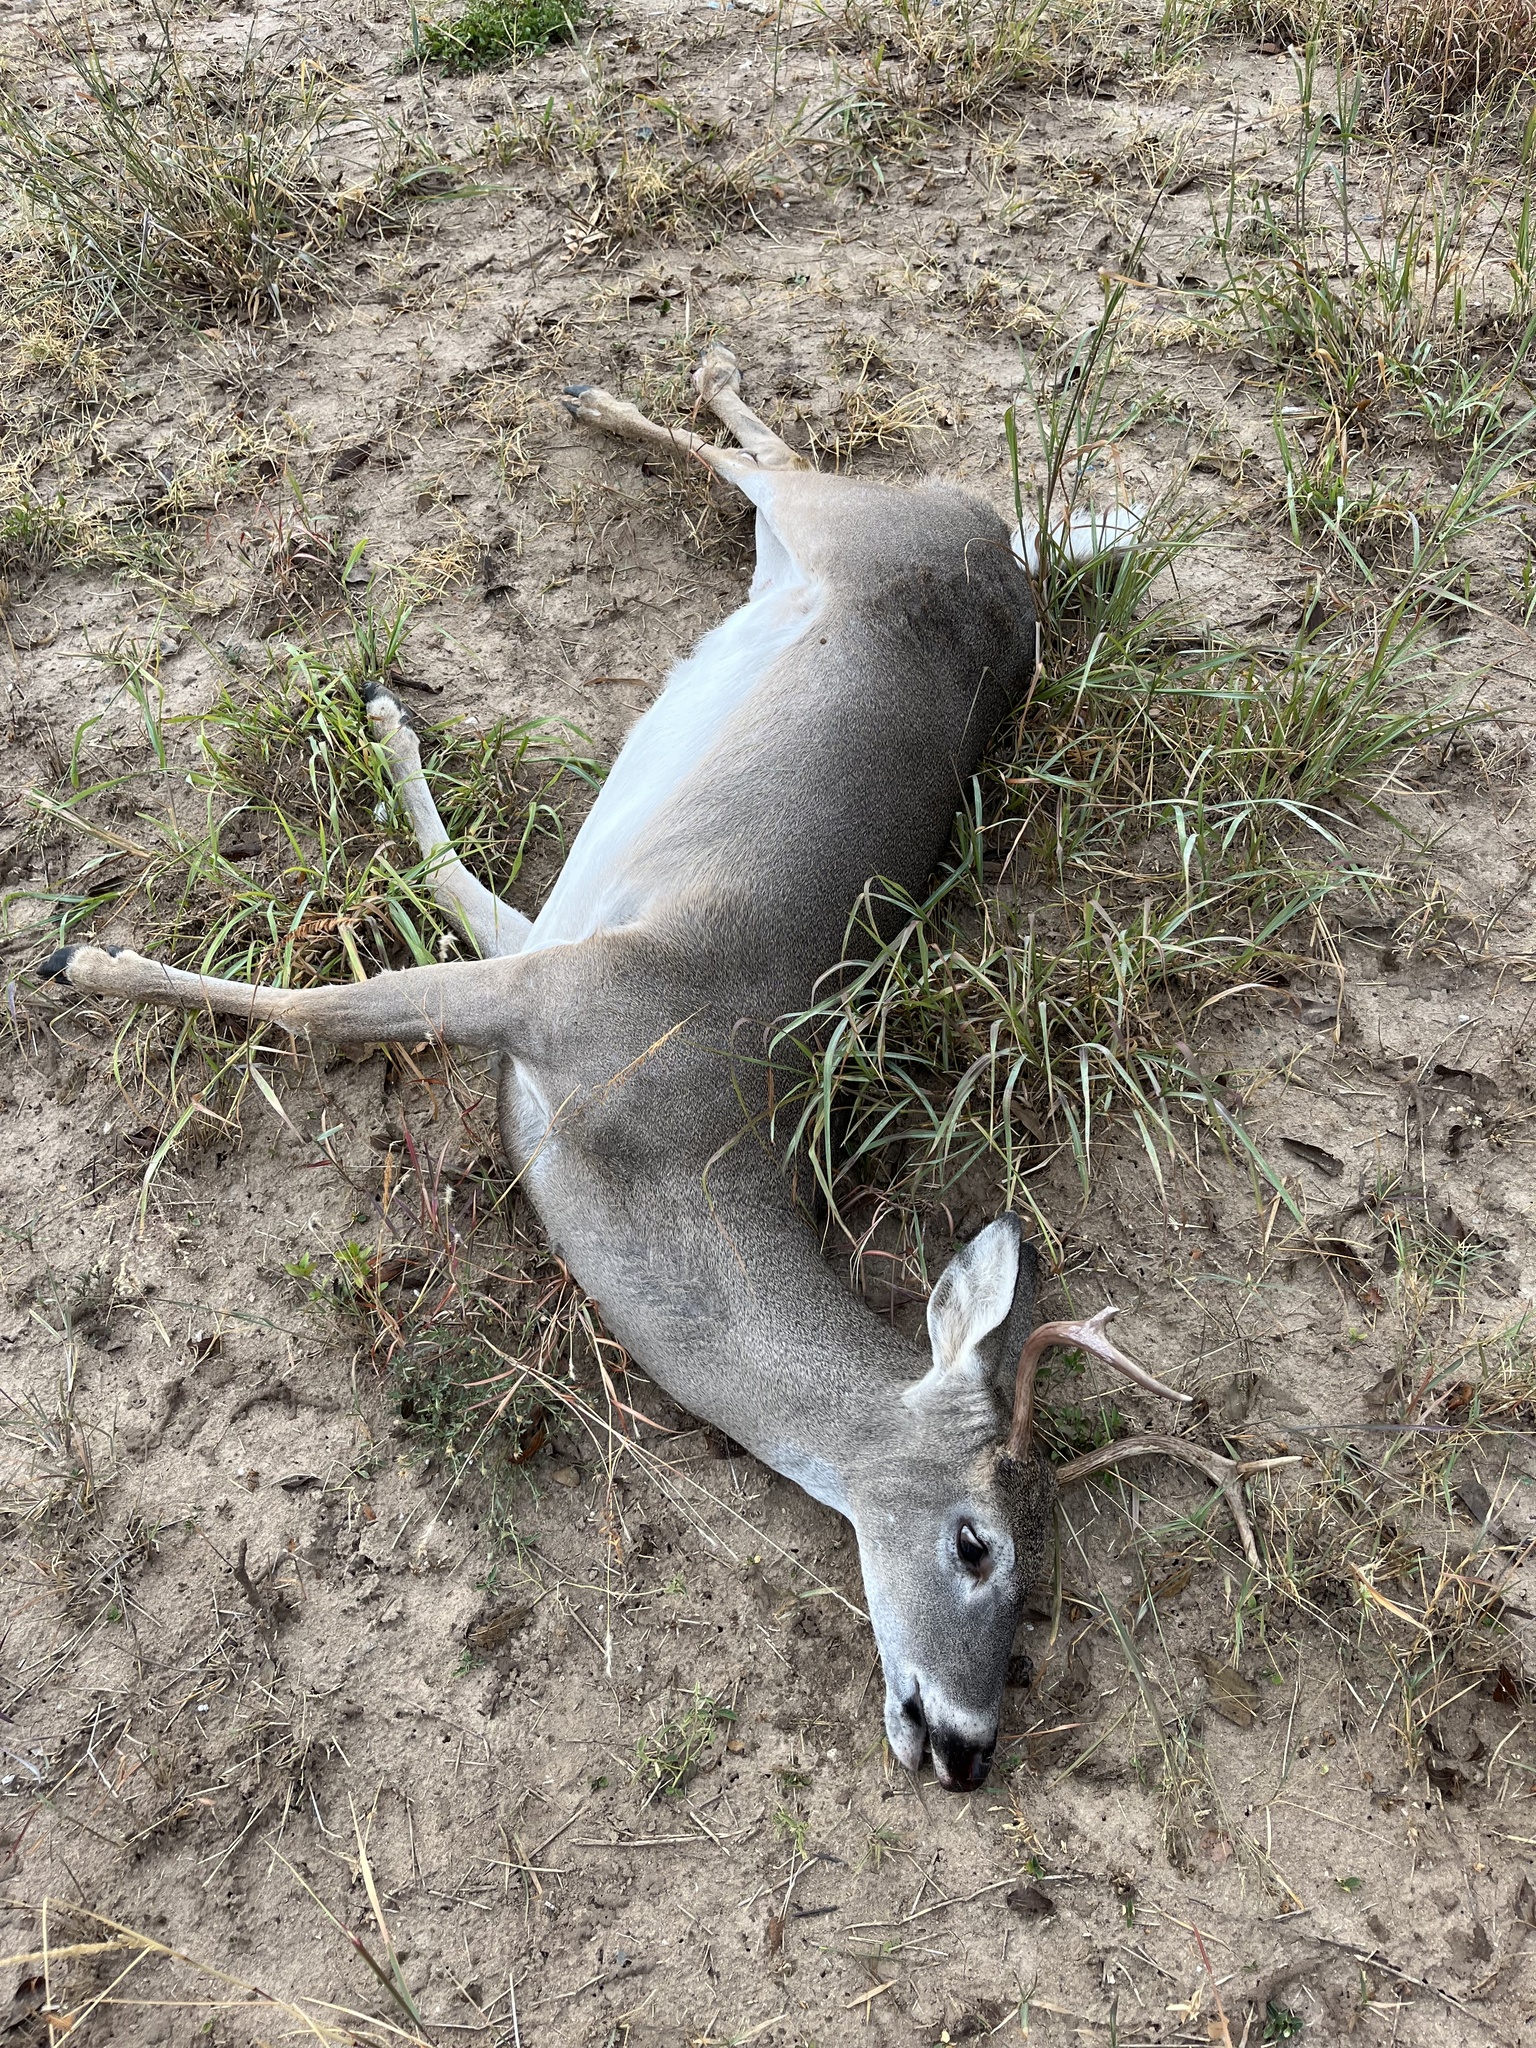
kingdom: Animalia
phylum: Chordata
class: Mammalia
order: Artiodactyla
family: Cervidae
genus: Odocoileus
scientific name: Odocoileus virginianus
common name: White-tailed deer
